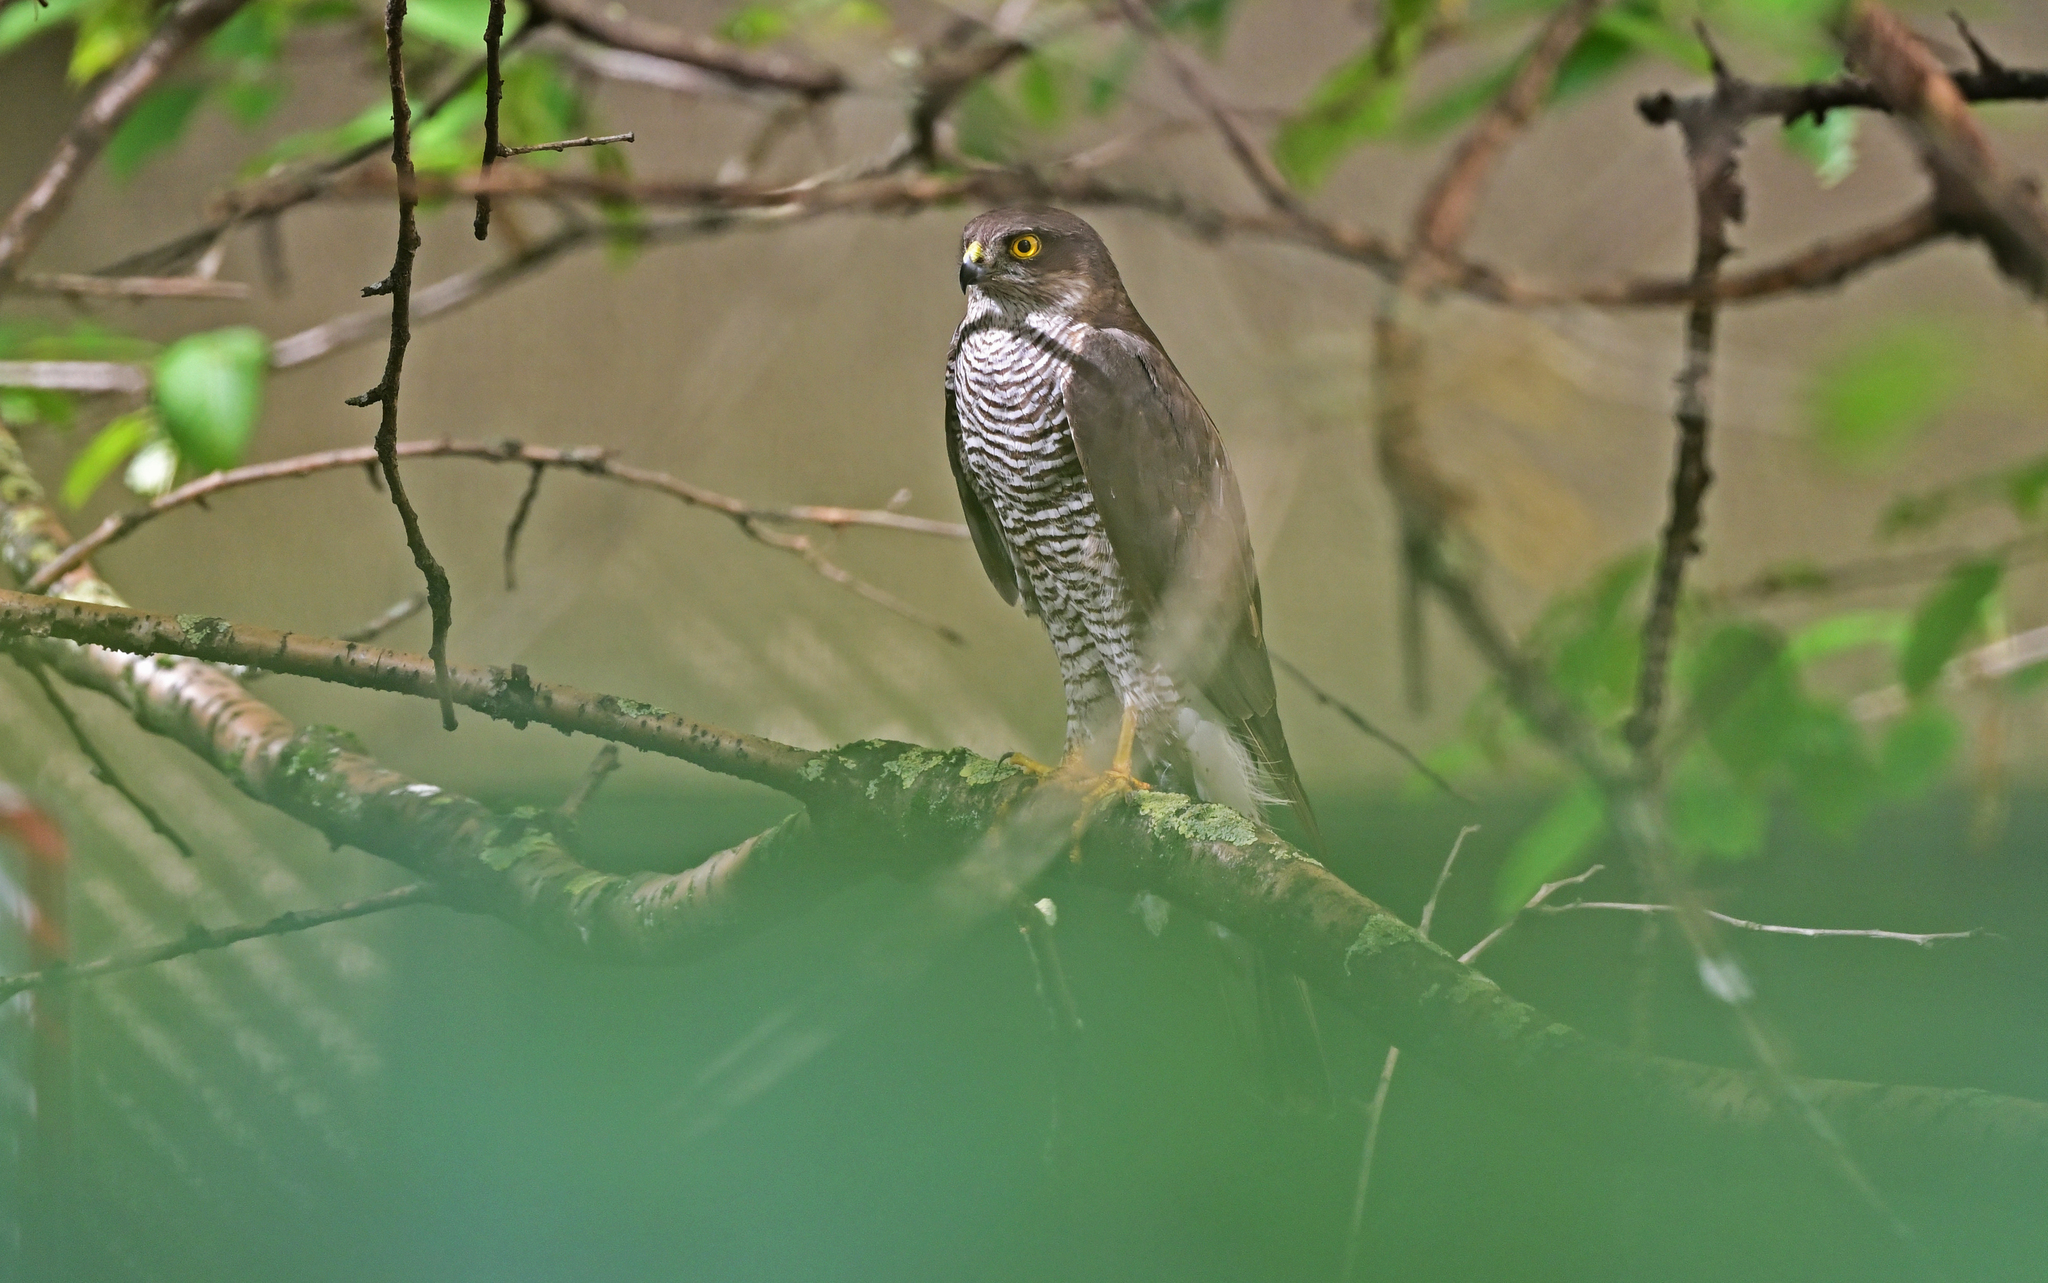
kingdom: Animalia
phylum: Chordata
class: Aves
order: Accipitriformes
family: Accipitridae
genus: Accipiter
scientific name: Accipiter nisus
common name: Eurasian sparrowhawk
